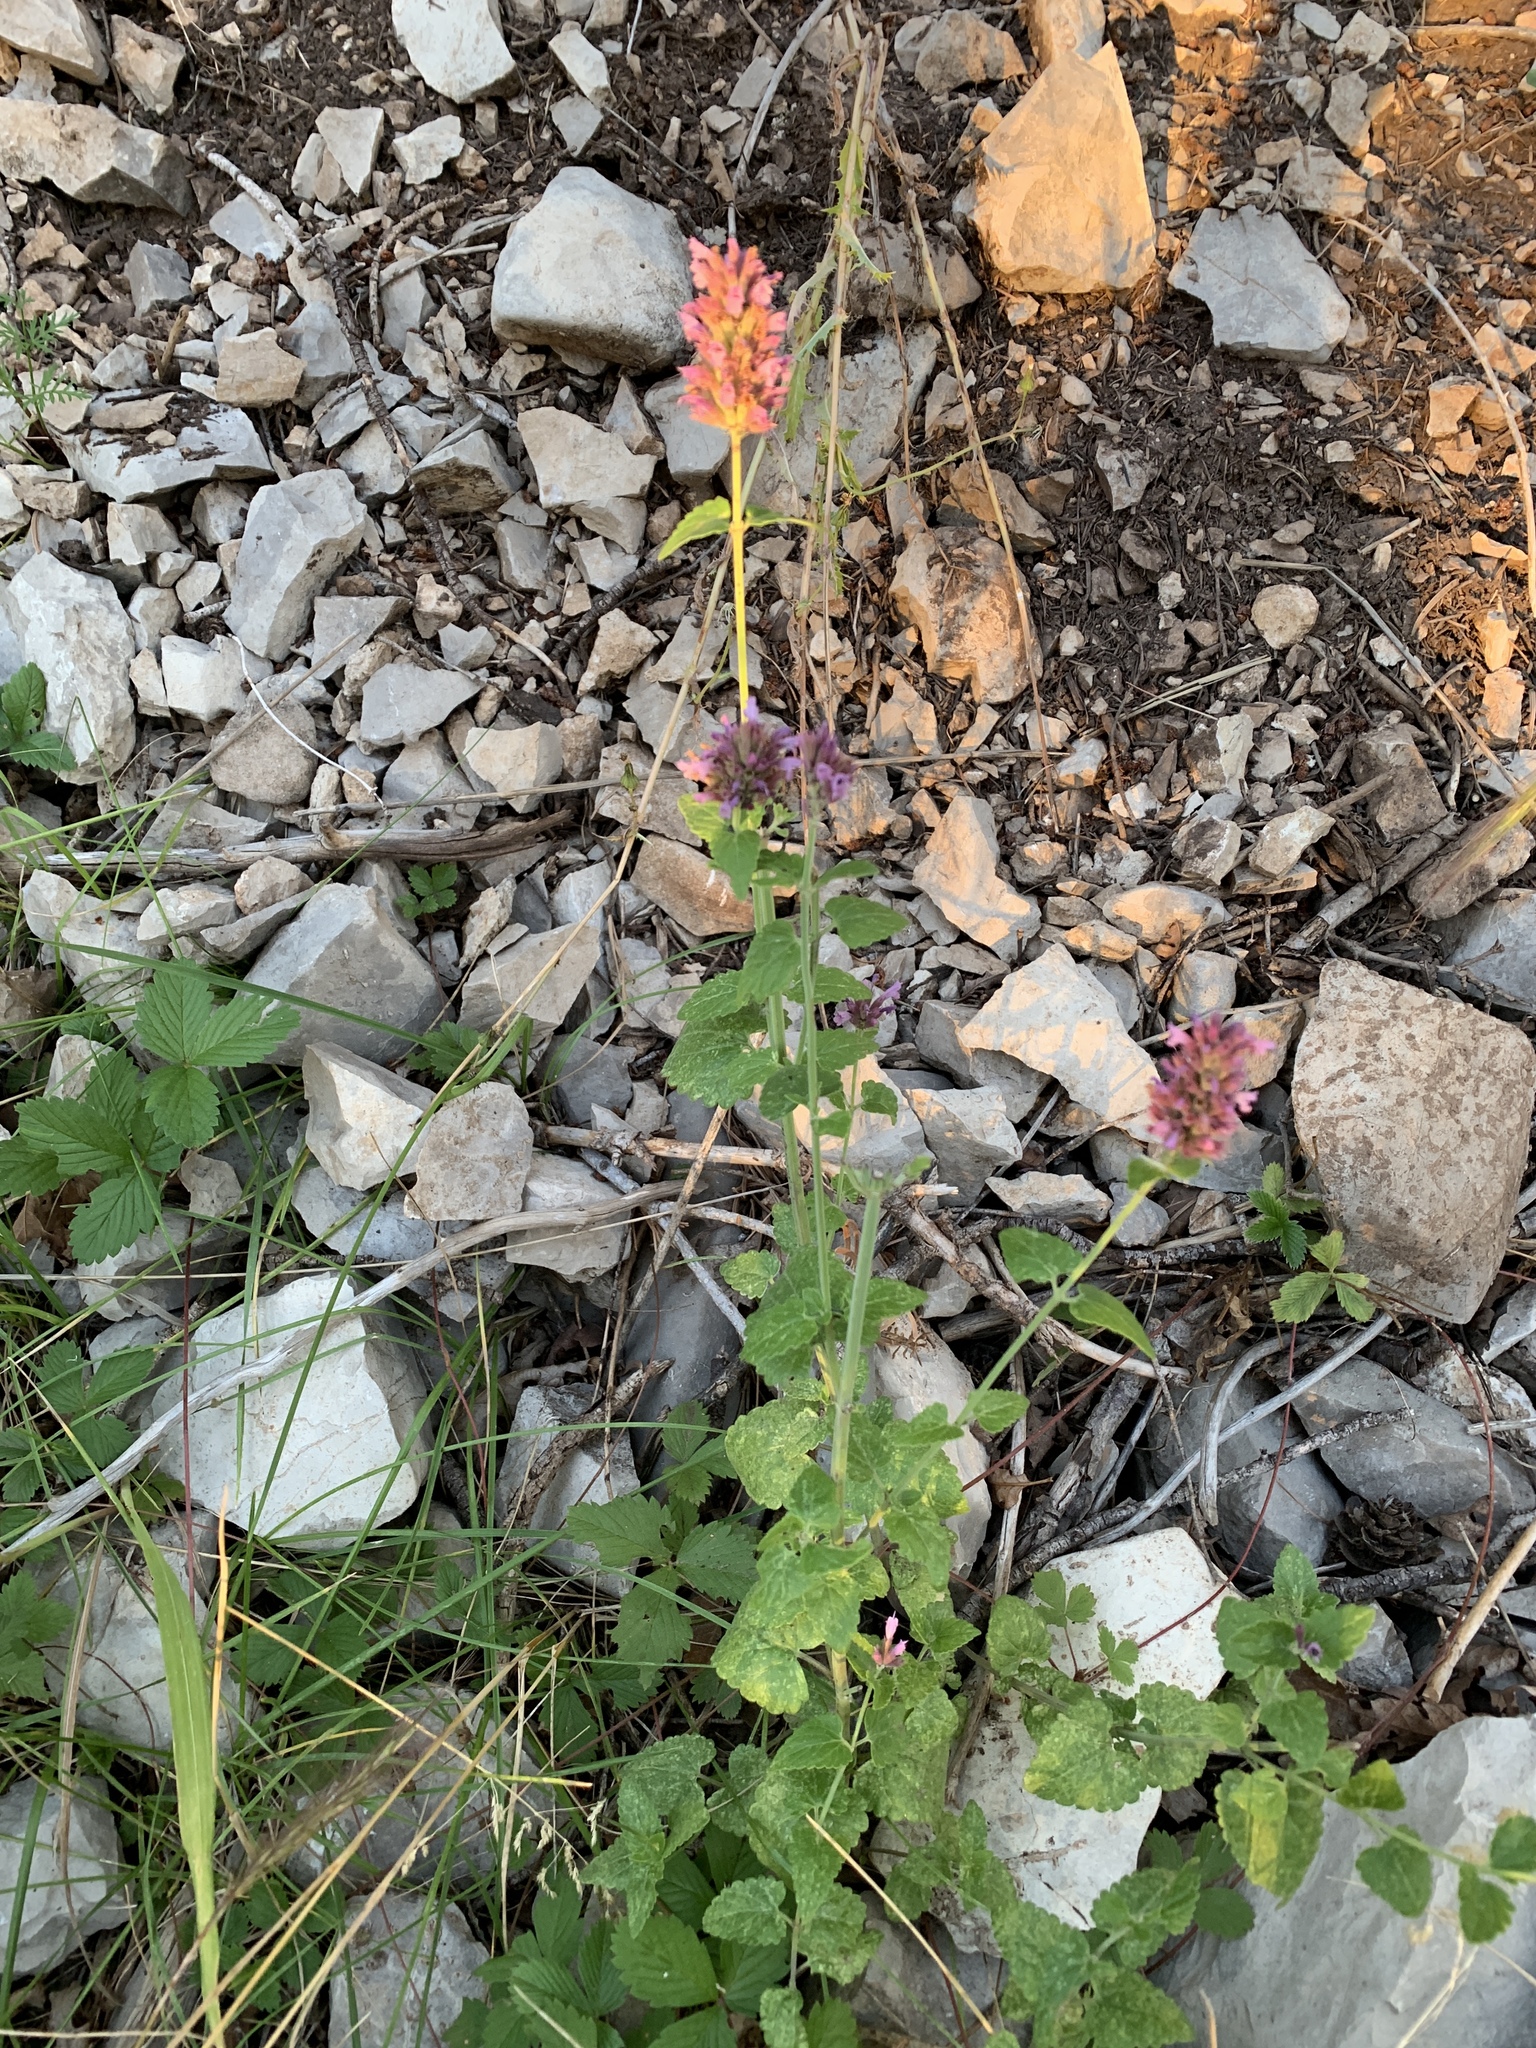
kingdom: Plantae
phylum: Tracheophyta
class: Magnoliopsida
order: Lamiales
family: Lamiaceae
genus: Agastache
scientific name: Agastache pallidiflora
